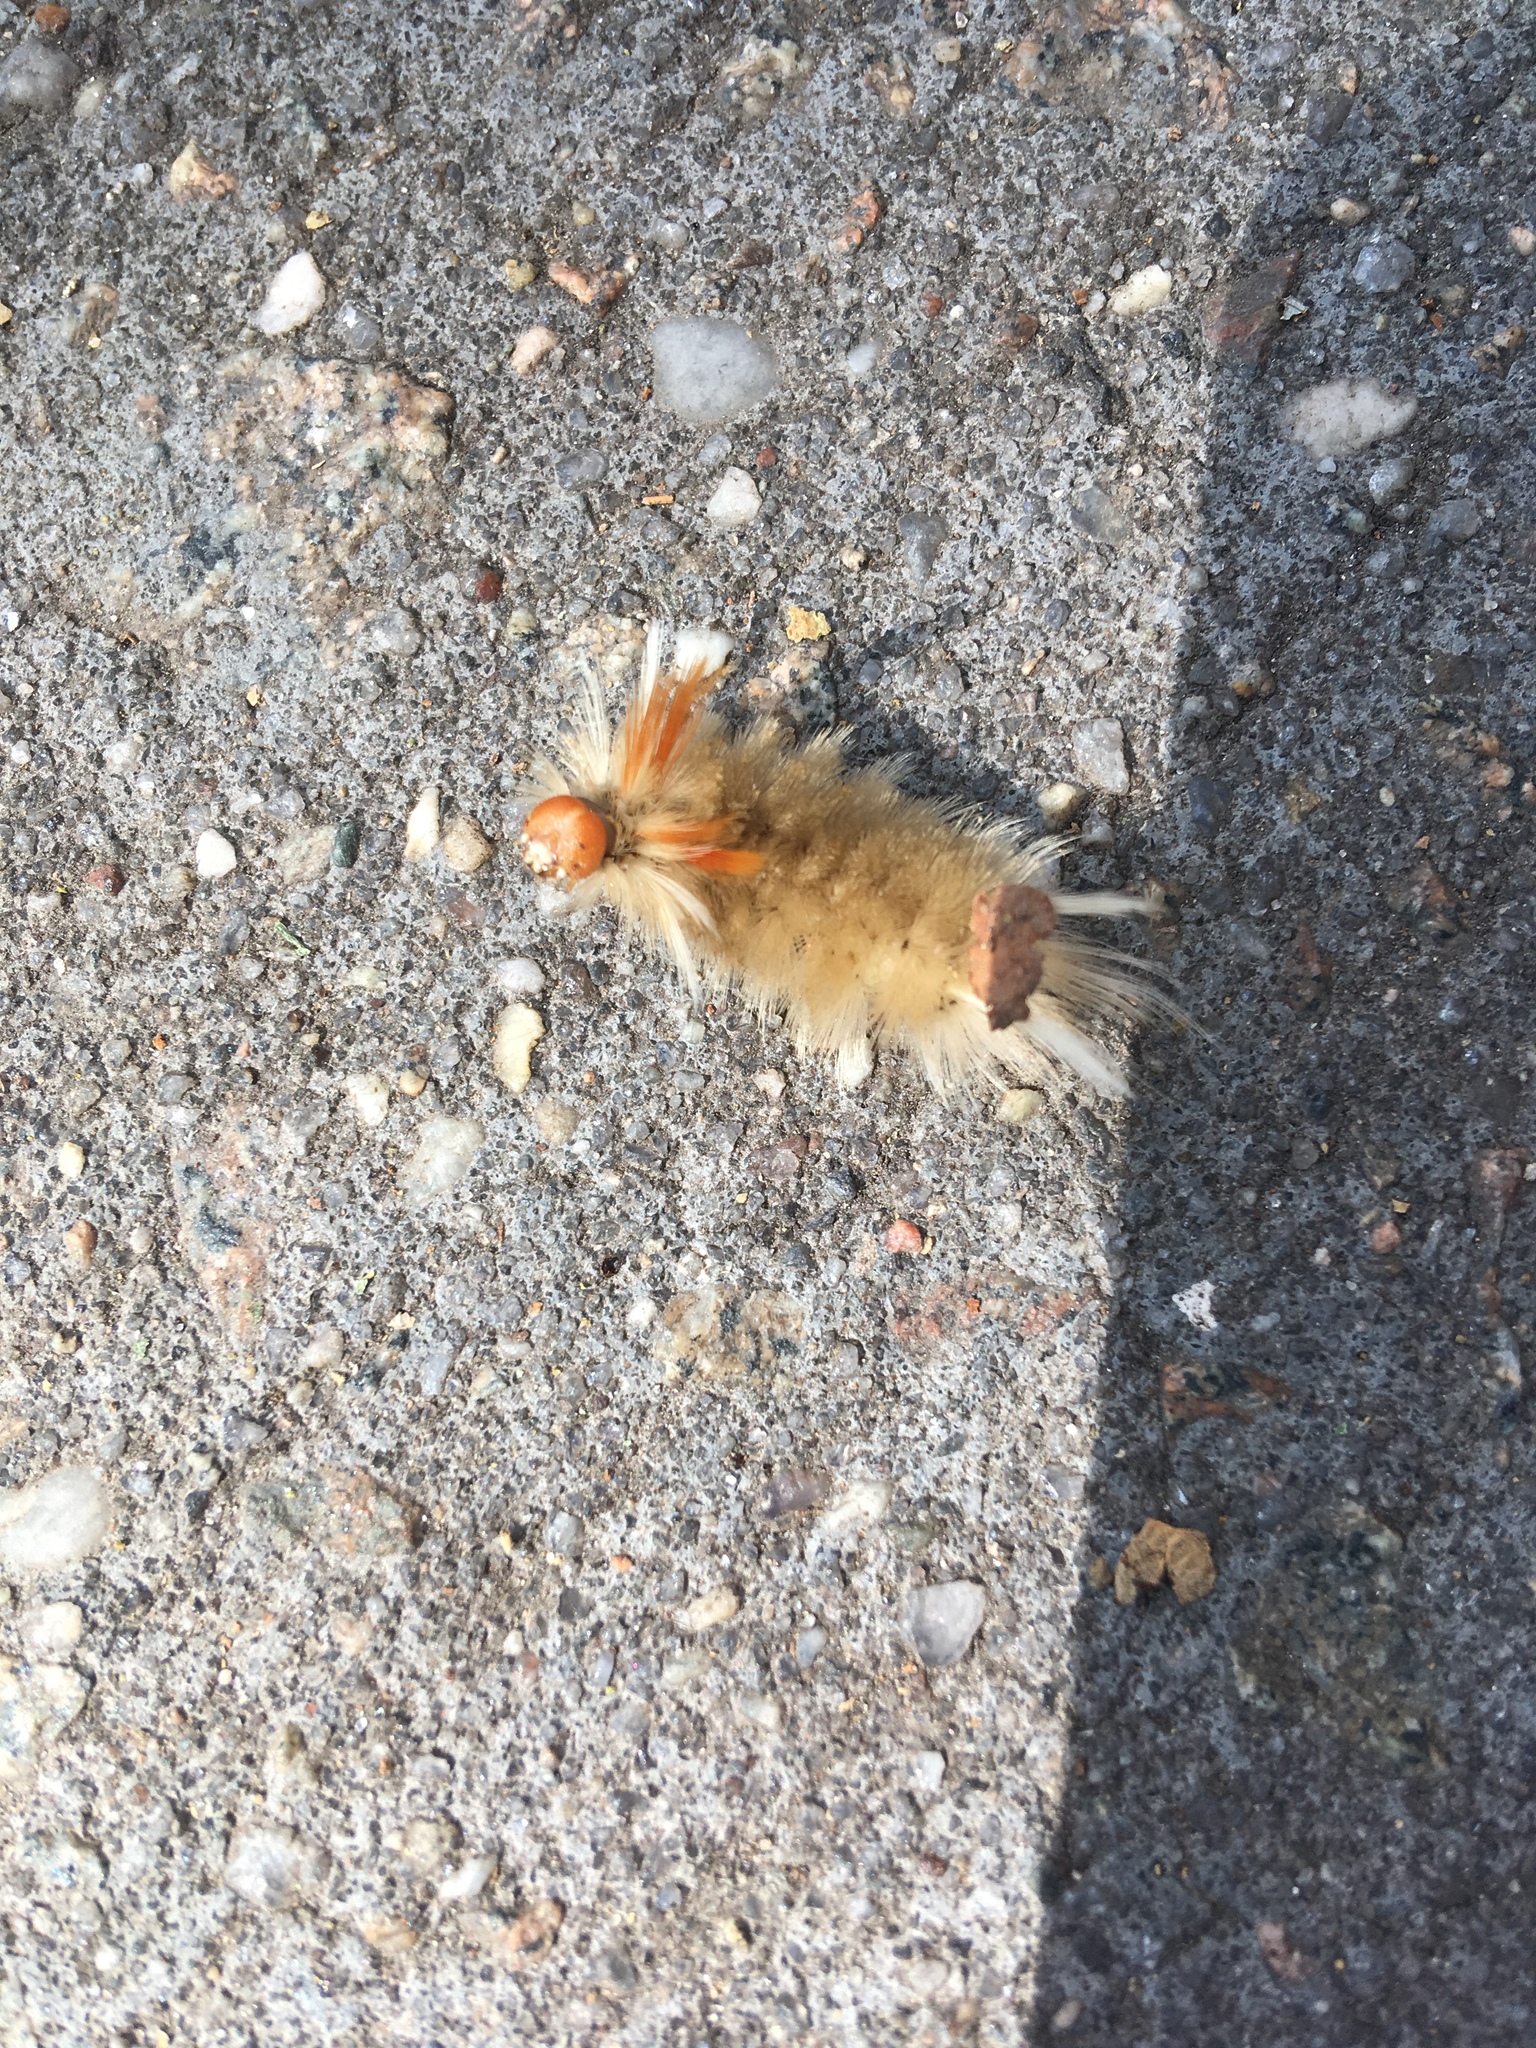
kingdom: Animalia
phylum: Arthropoda
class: Insecta
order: Lepidoptera
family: Erebidae
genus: Halysidota
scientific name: Halysidota harrisii
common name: Sycamore tussock moth
